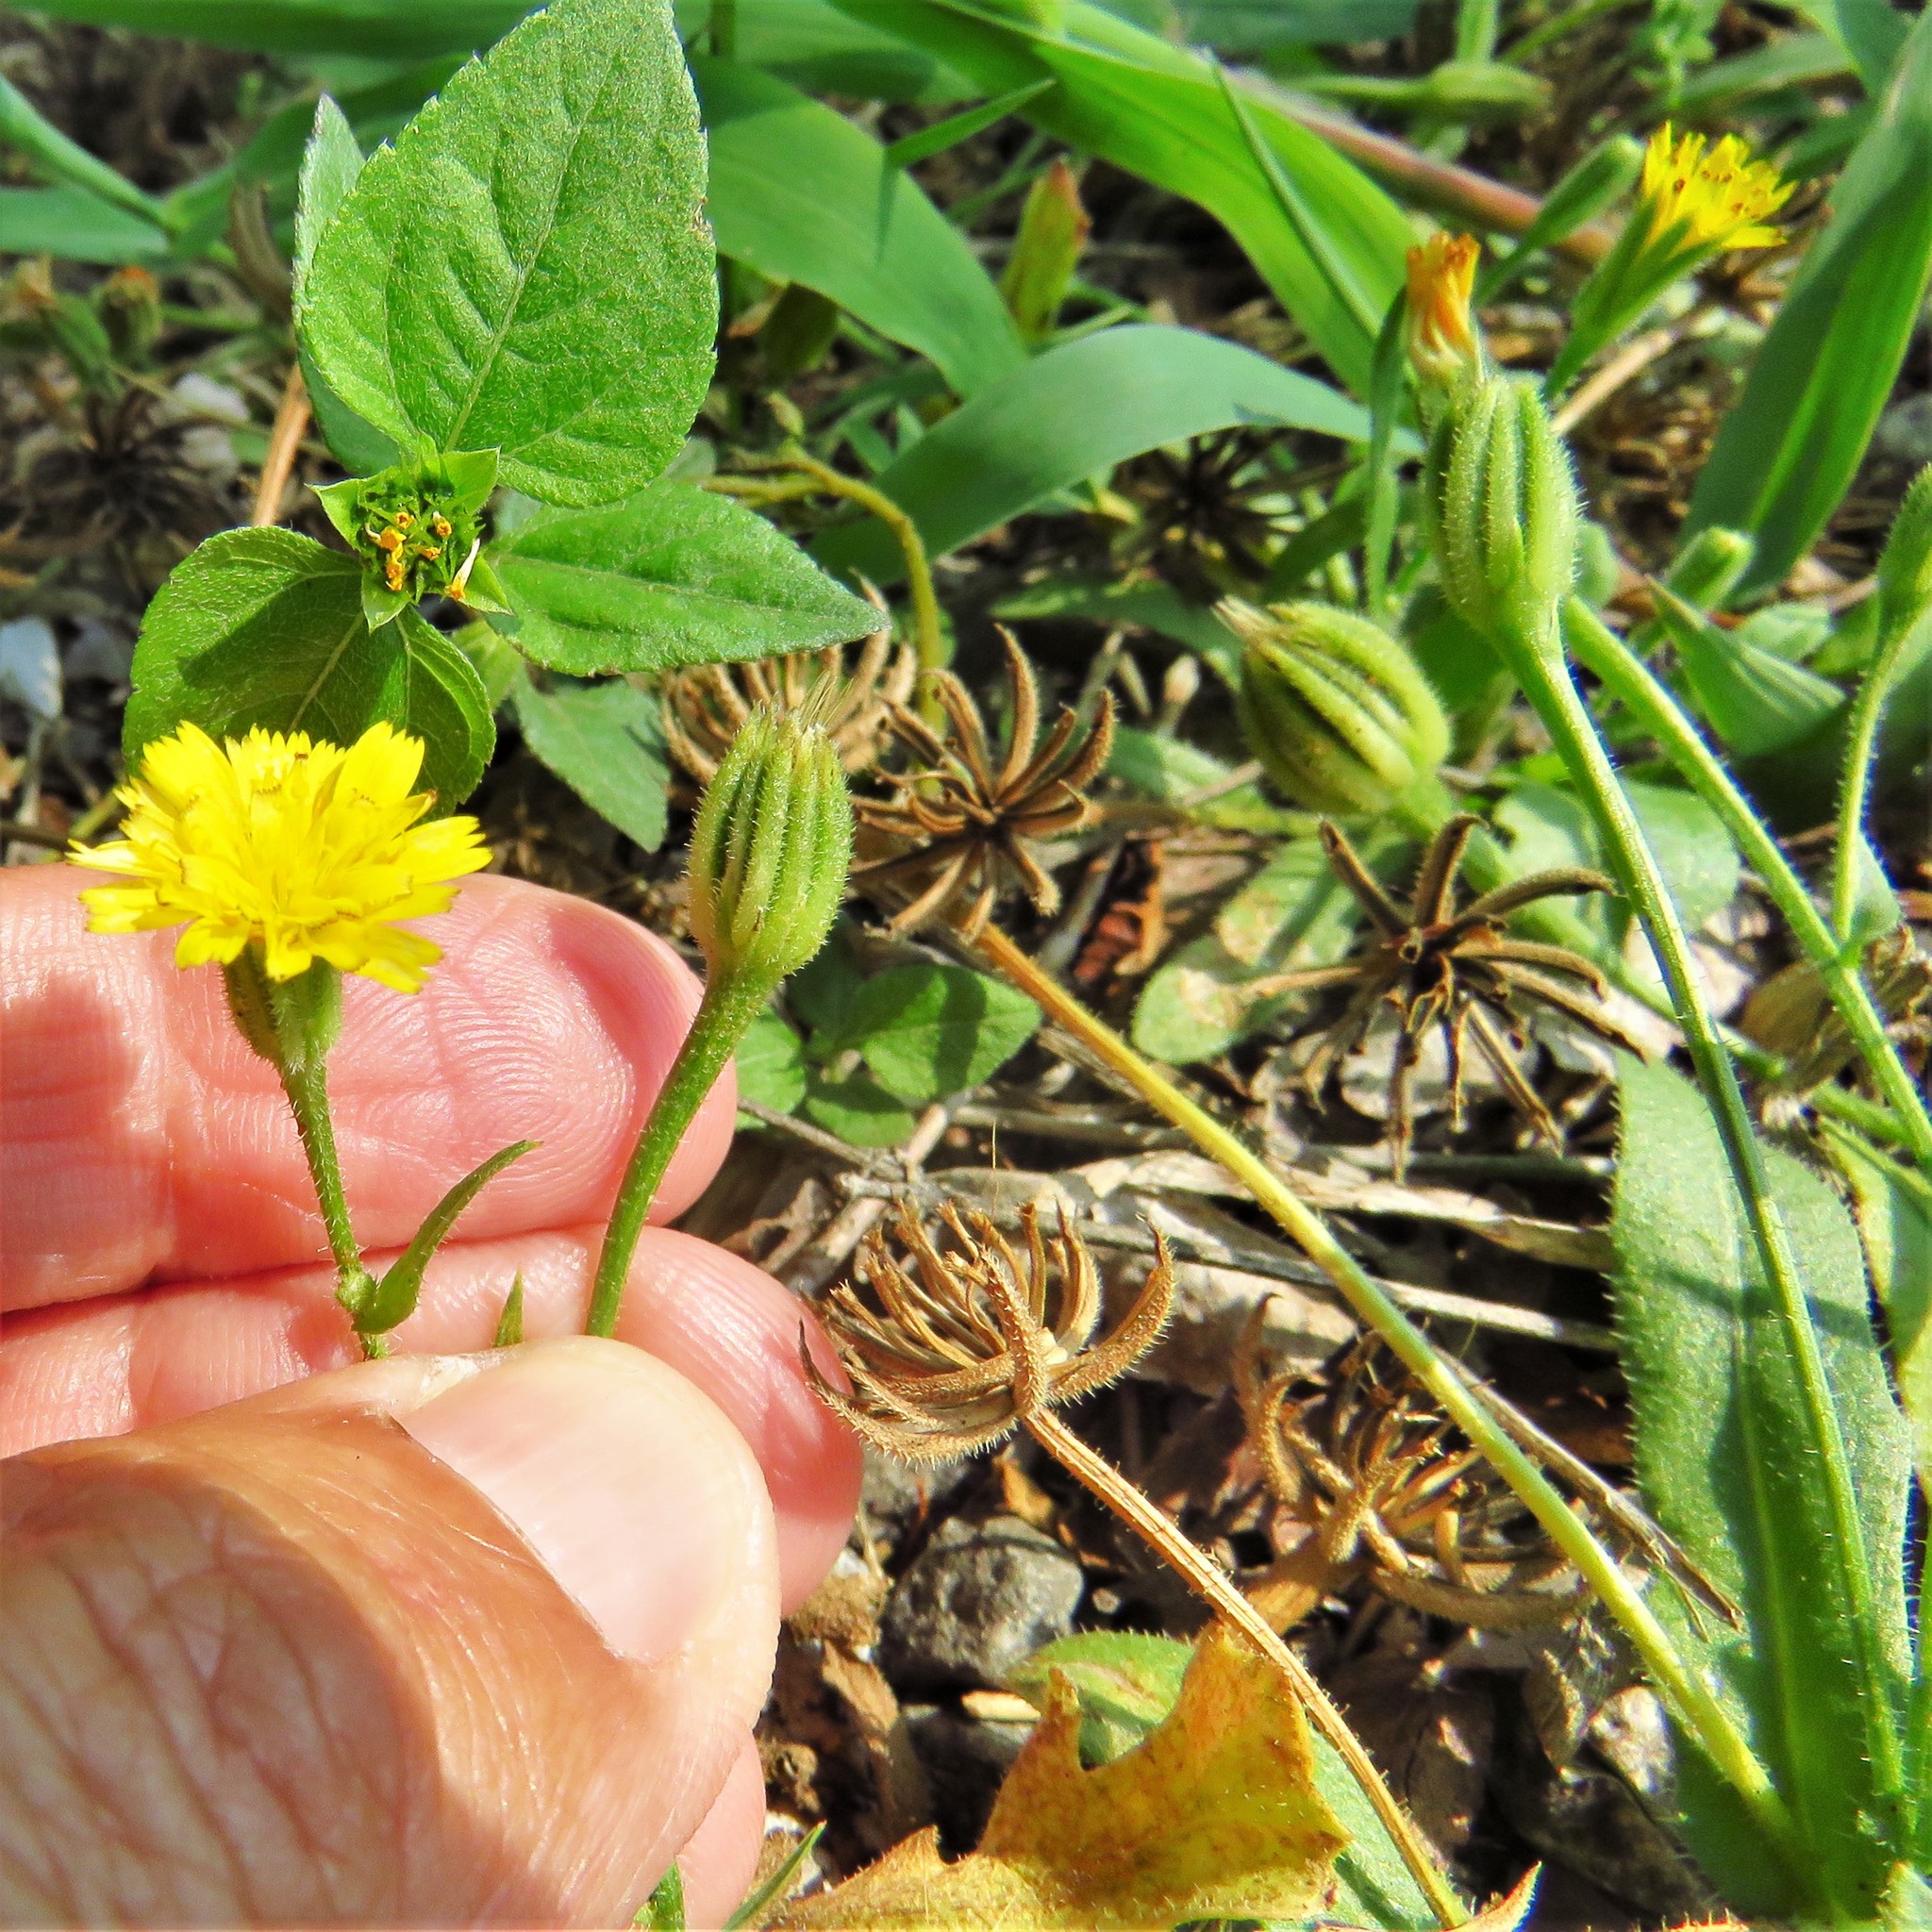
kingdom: Plantae
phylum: Tracheophyta
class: Magnoliopsida
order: Asterales
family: Asteraceae
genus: Hedypnois
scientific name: Hedypnois rhagadioloides
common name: Cretan weed
